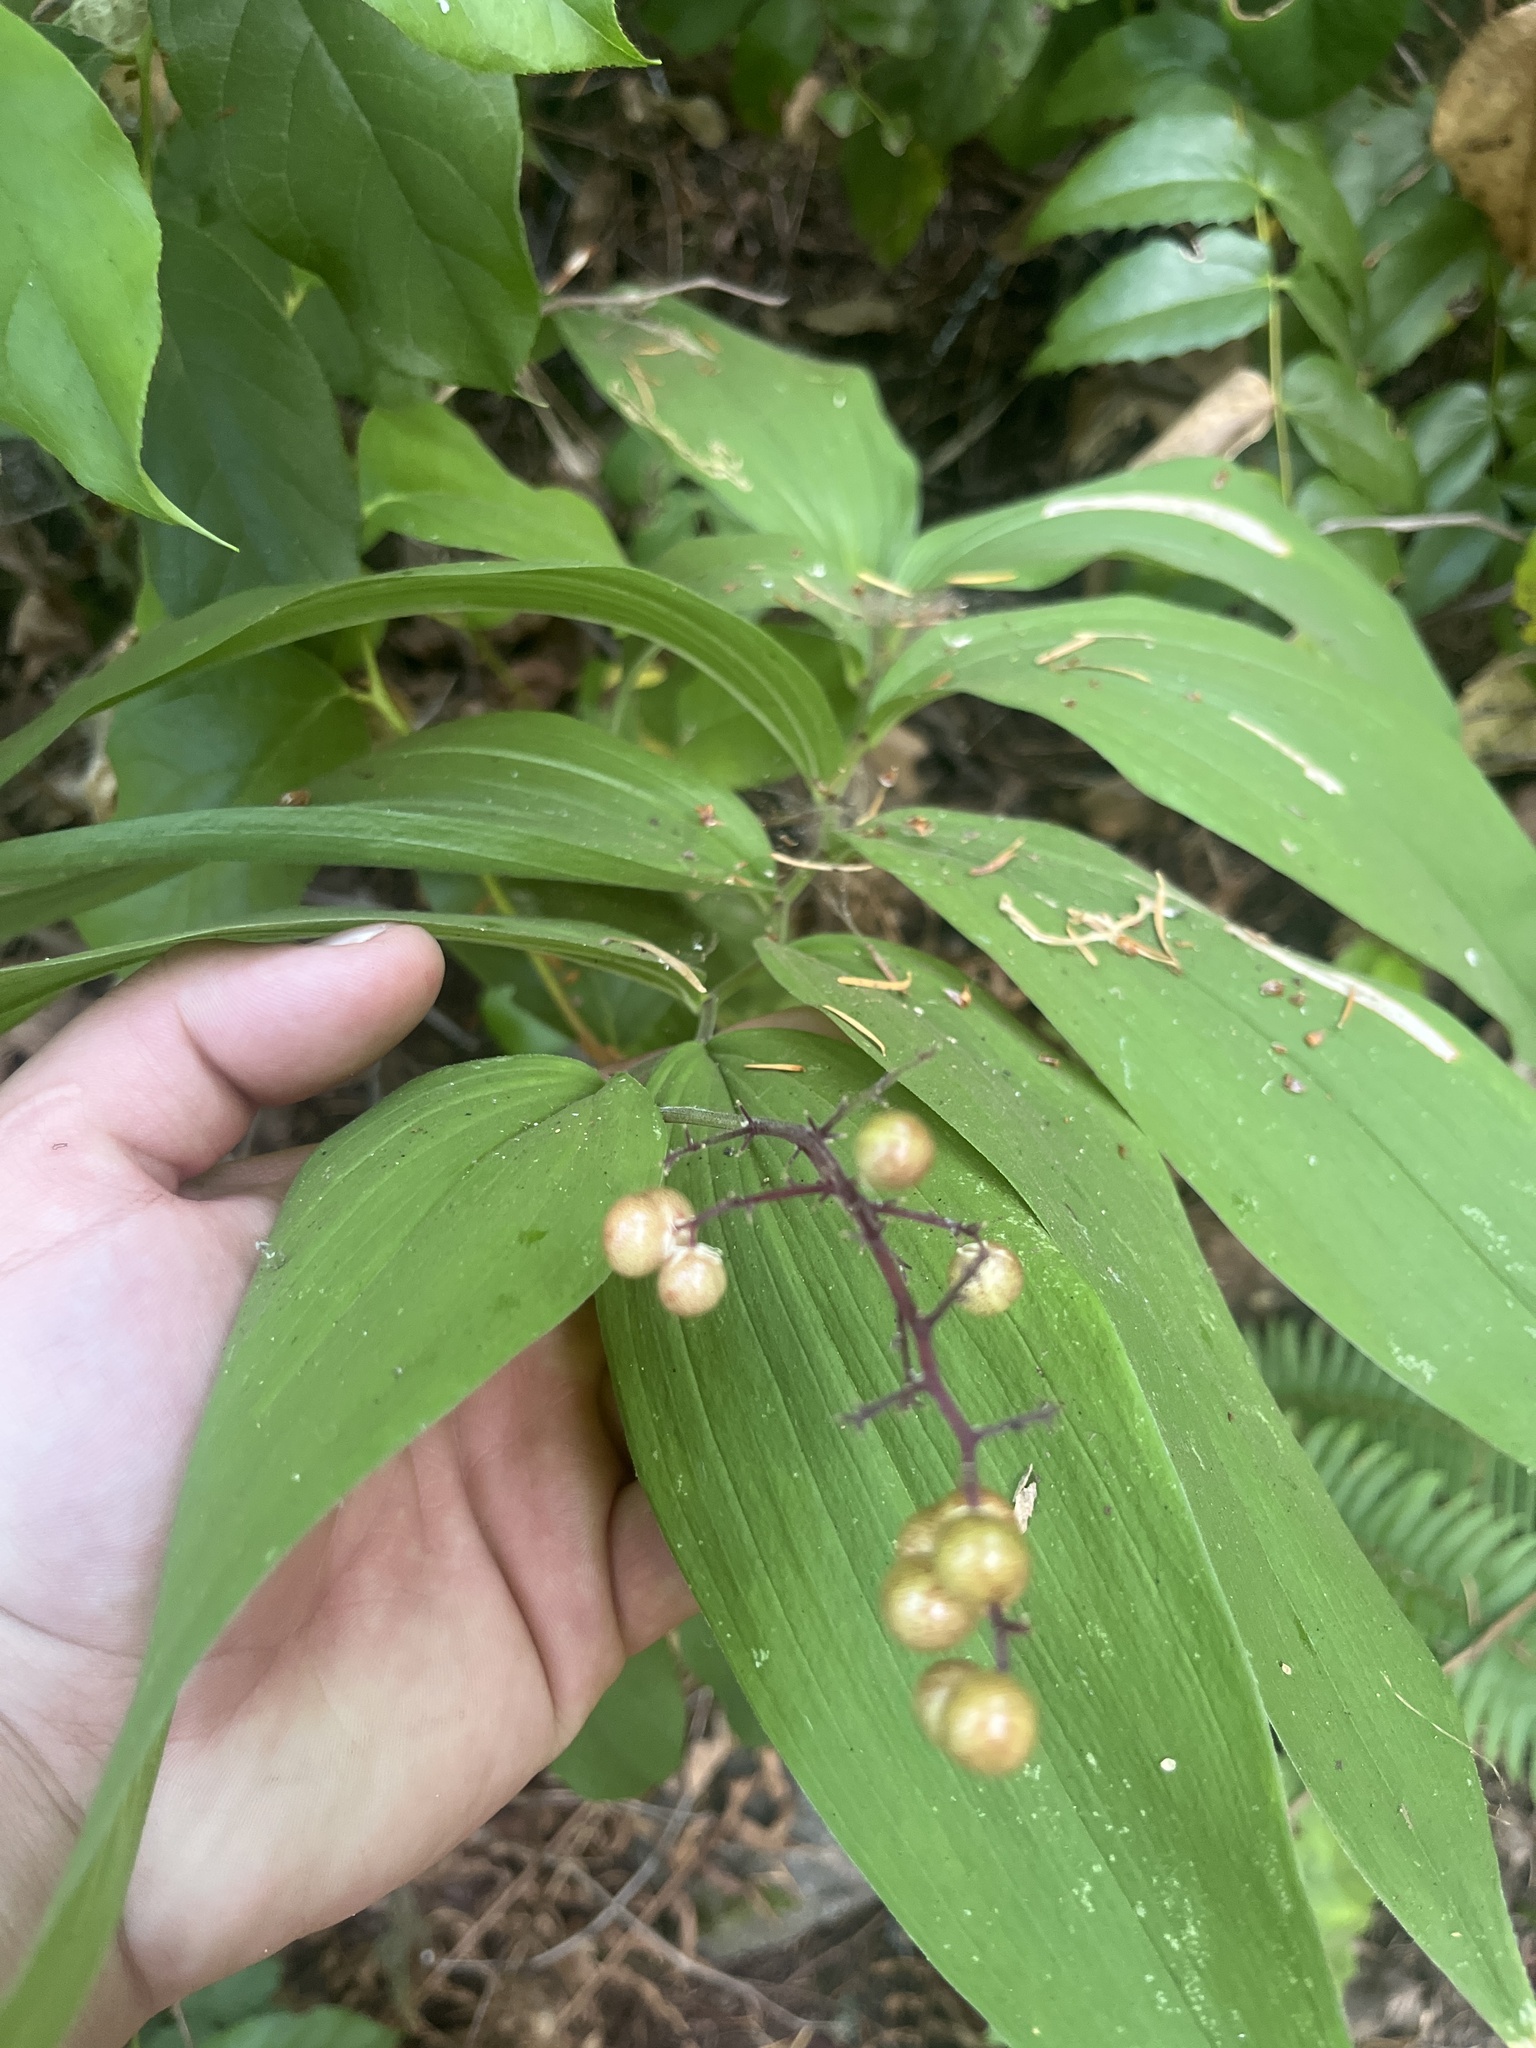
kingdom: Plantae
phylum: Tracheophyta
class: Liliopsida
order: Asparagales
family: Asparagaceae
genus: Maianthemum
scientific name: Maianthemum racemosum
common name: False spikenard
